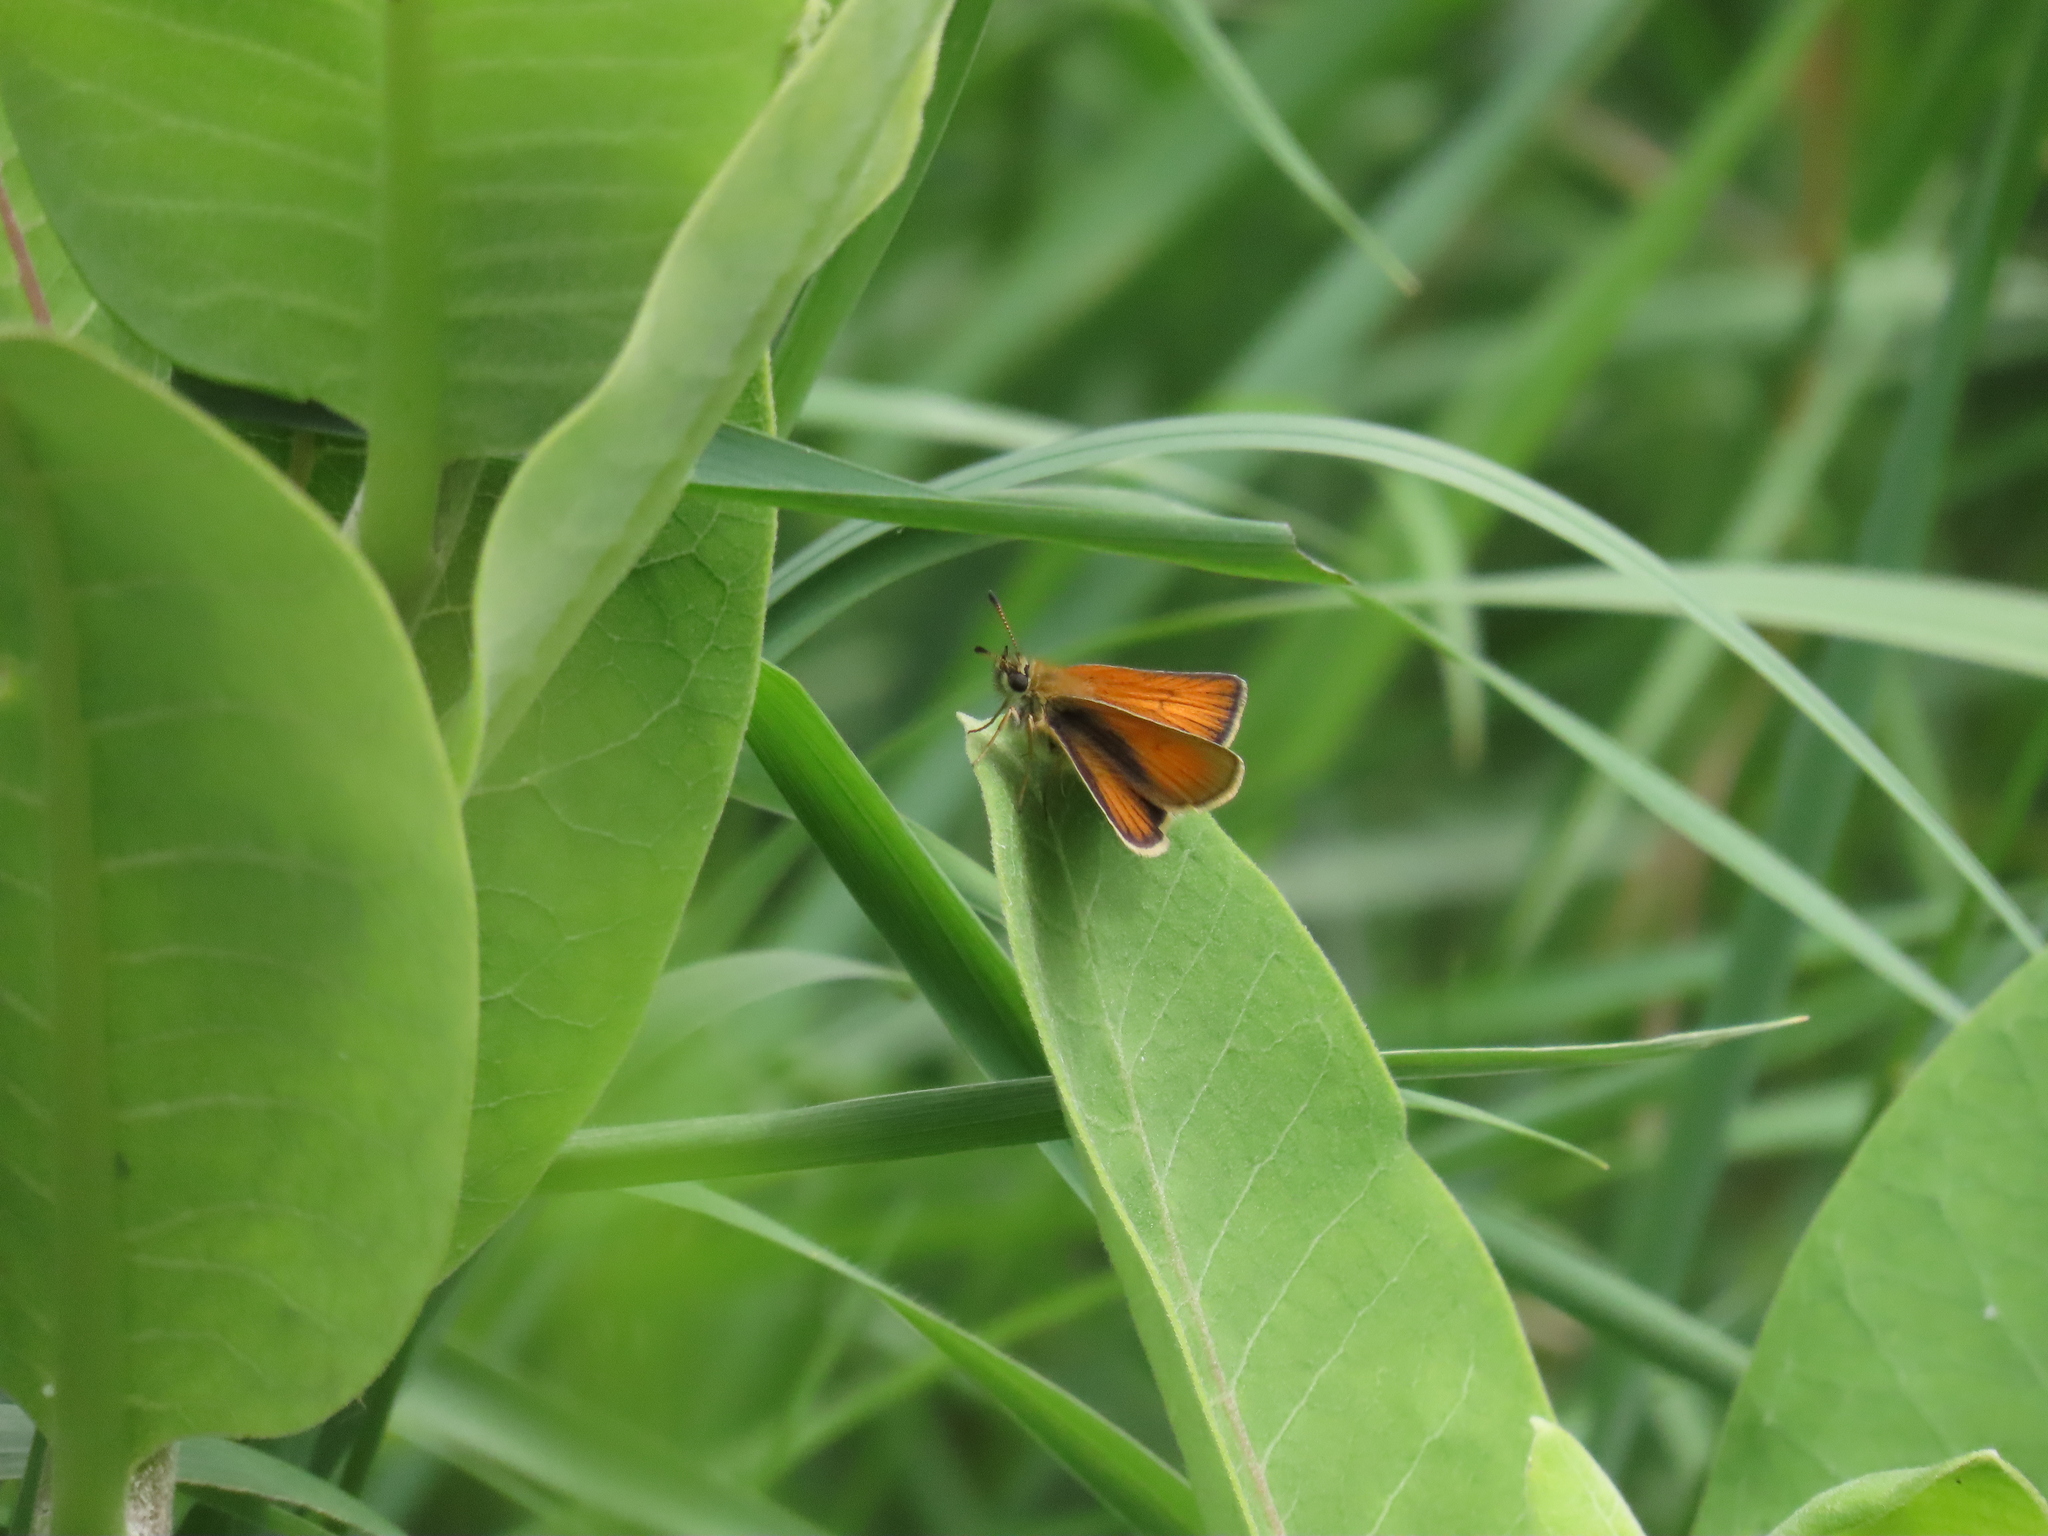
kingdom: Animalia
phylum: Arthropoda
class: Insecta
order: Lepidoptera
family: Hesperiidae
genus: Thymelicus
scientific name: Thymelicus lineola
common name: Essex skipper
